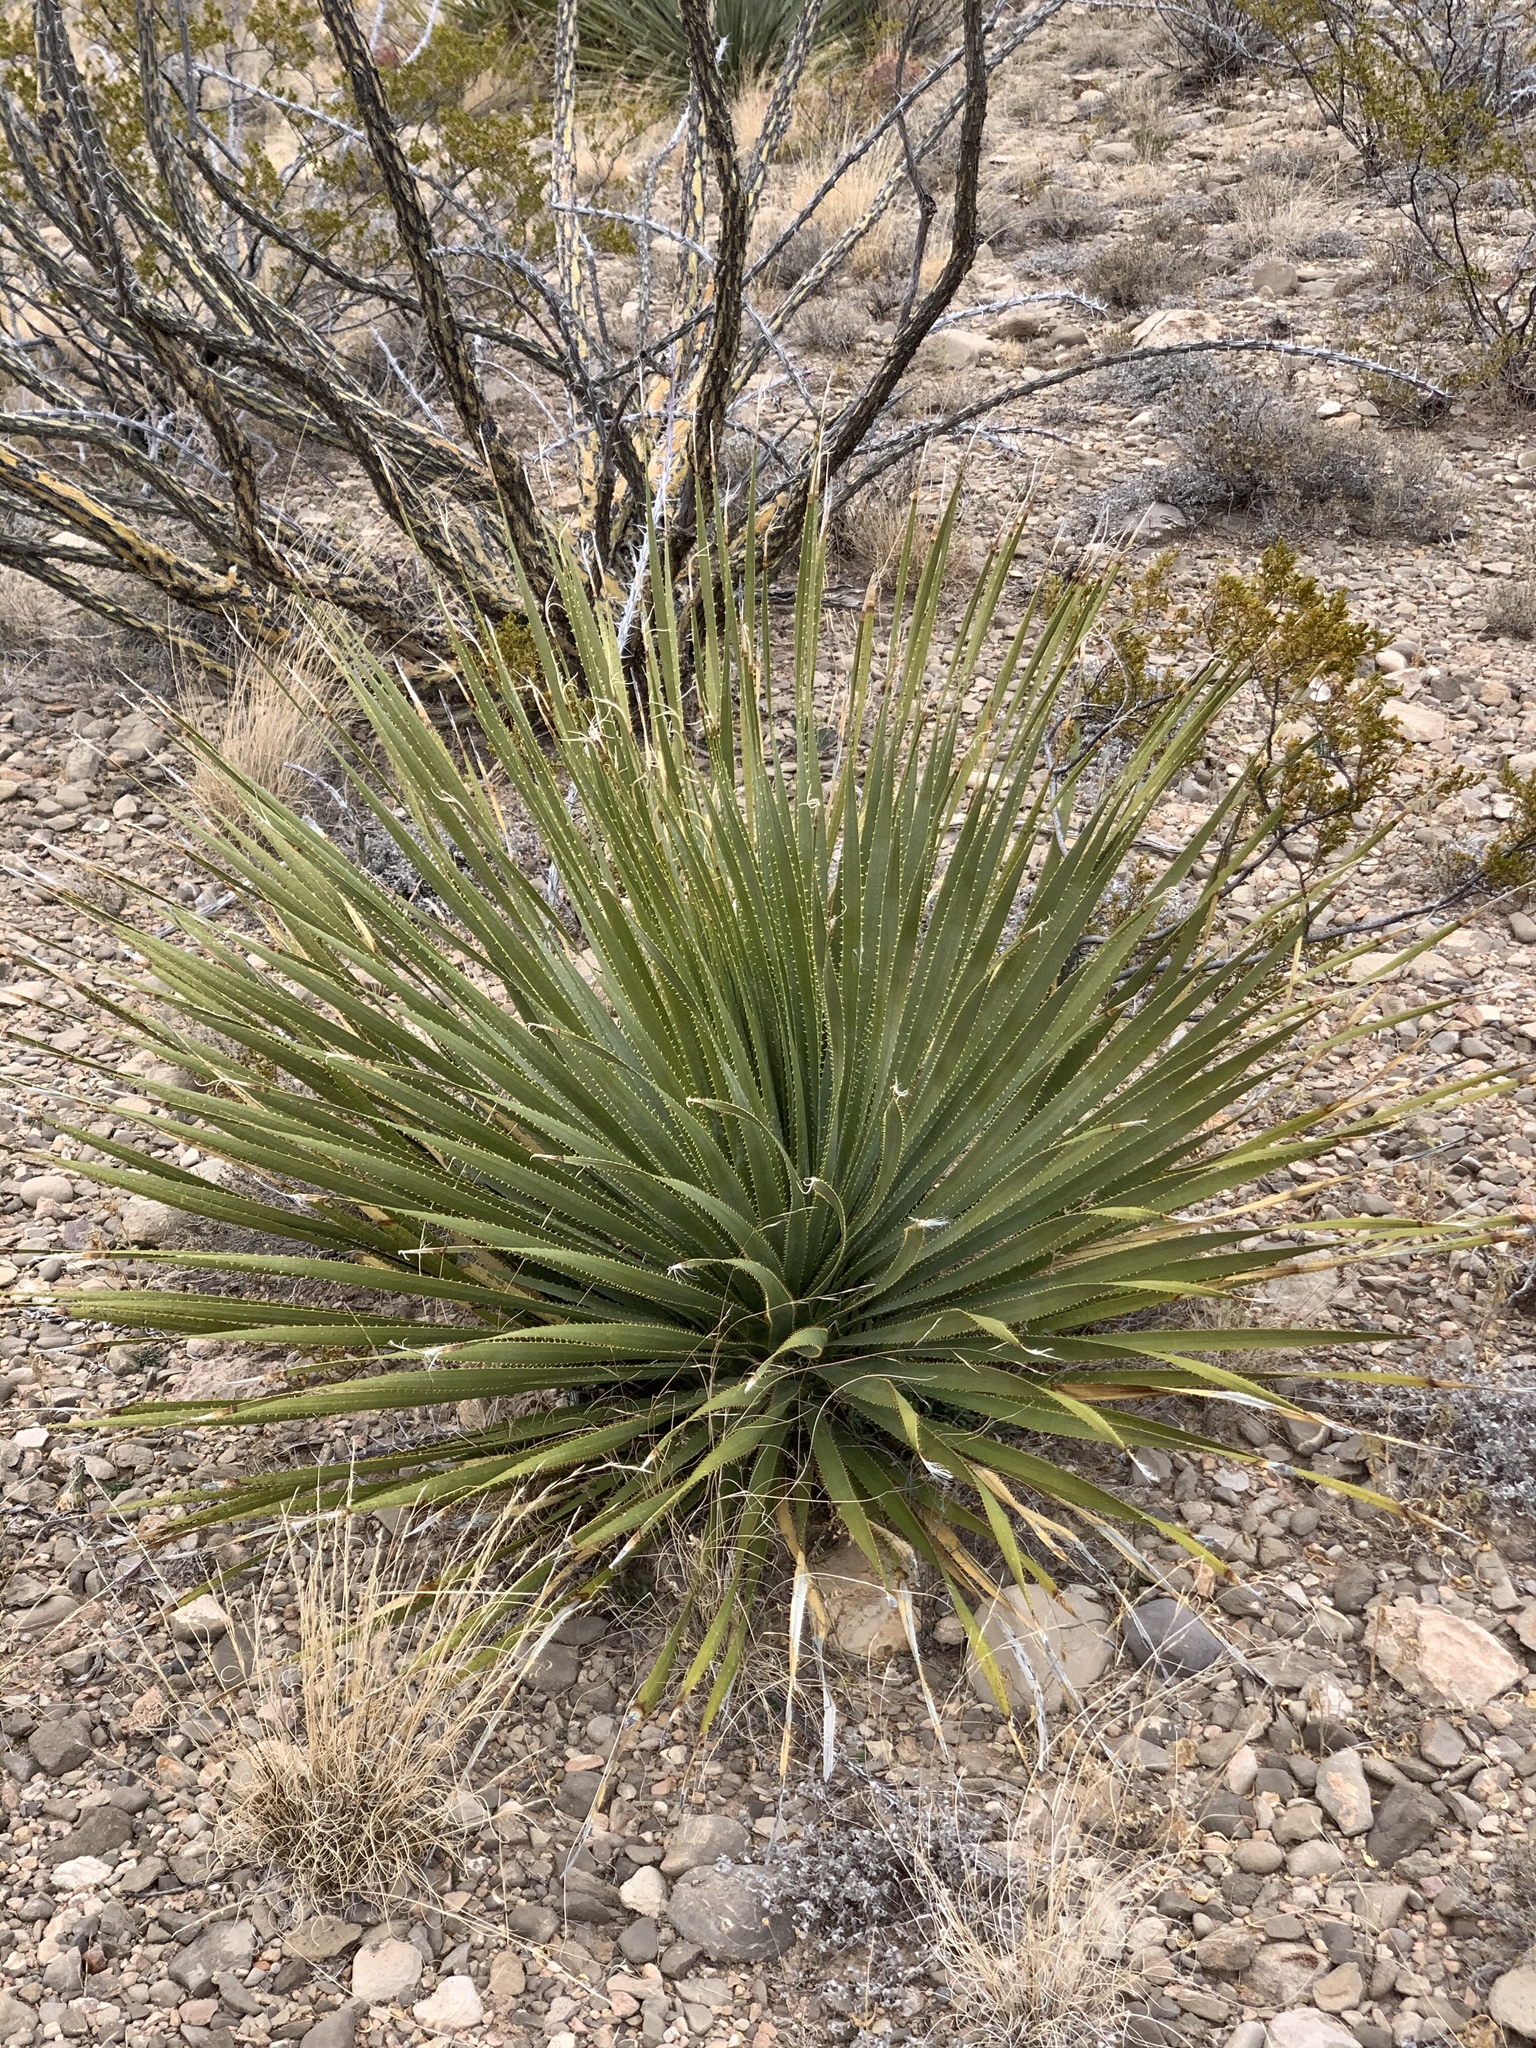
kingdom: Plantae
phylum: Tracheophyta
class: Liliopsida
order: Asparagales
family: Asparagaceae
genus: Dasylirion
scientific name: Dasylirion wheeleri
